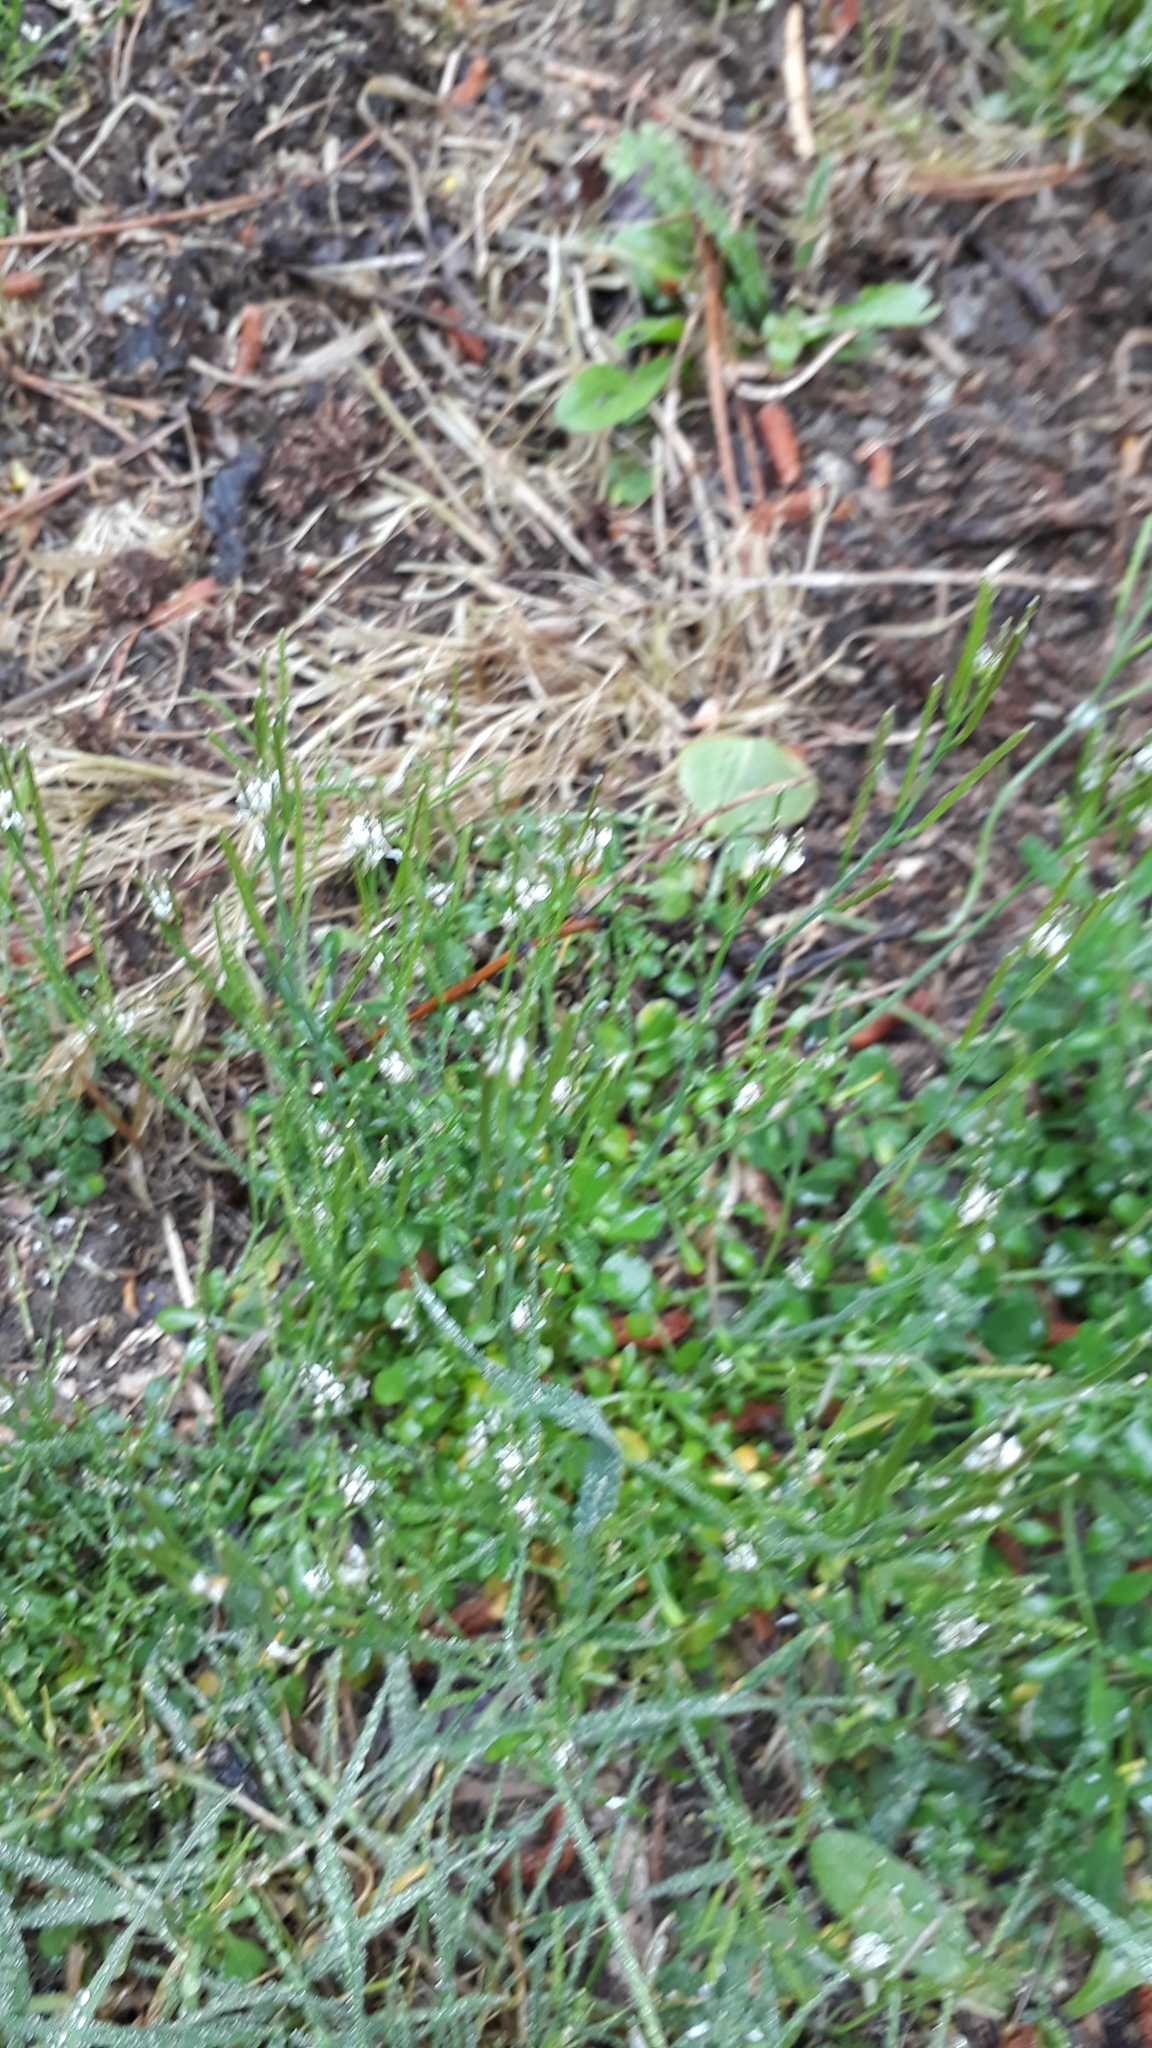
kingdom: Plantae
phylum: Tracheophyta
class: Magnoliopsida
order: Brassicales
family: Brassicaceae
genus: Cardamine
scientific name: Cardamine hirsuta
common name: Hairy bittercress
